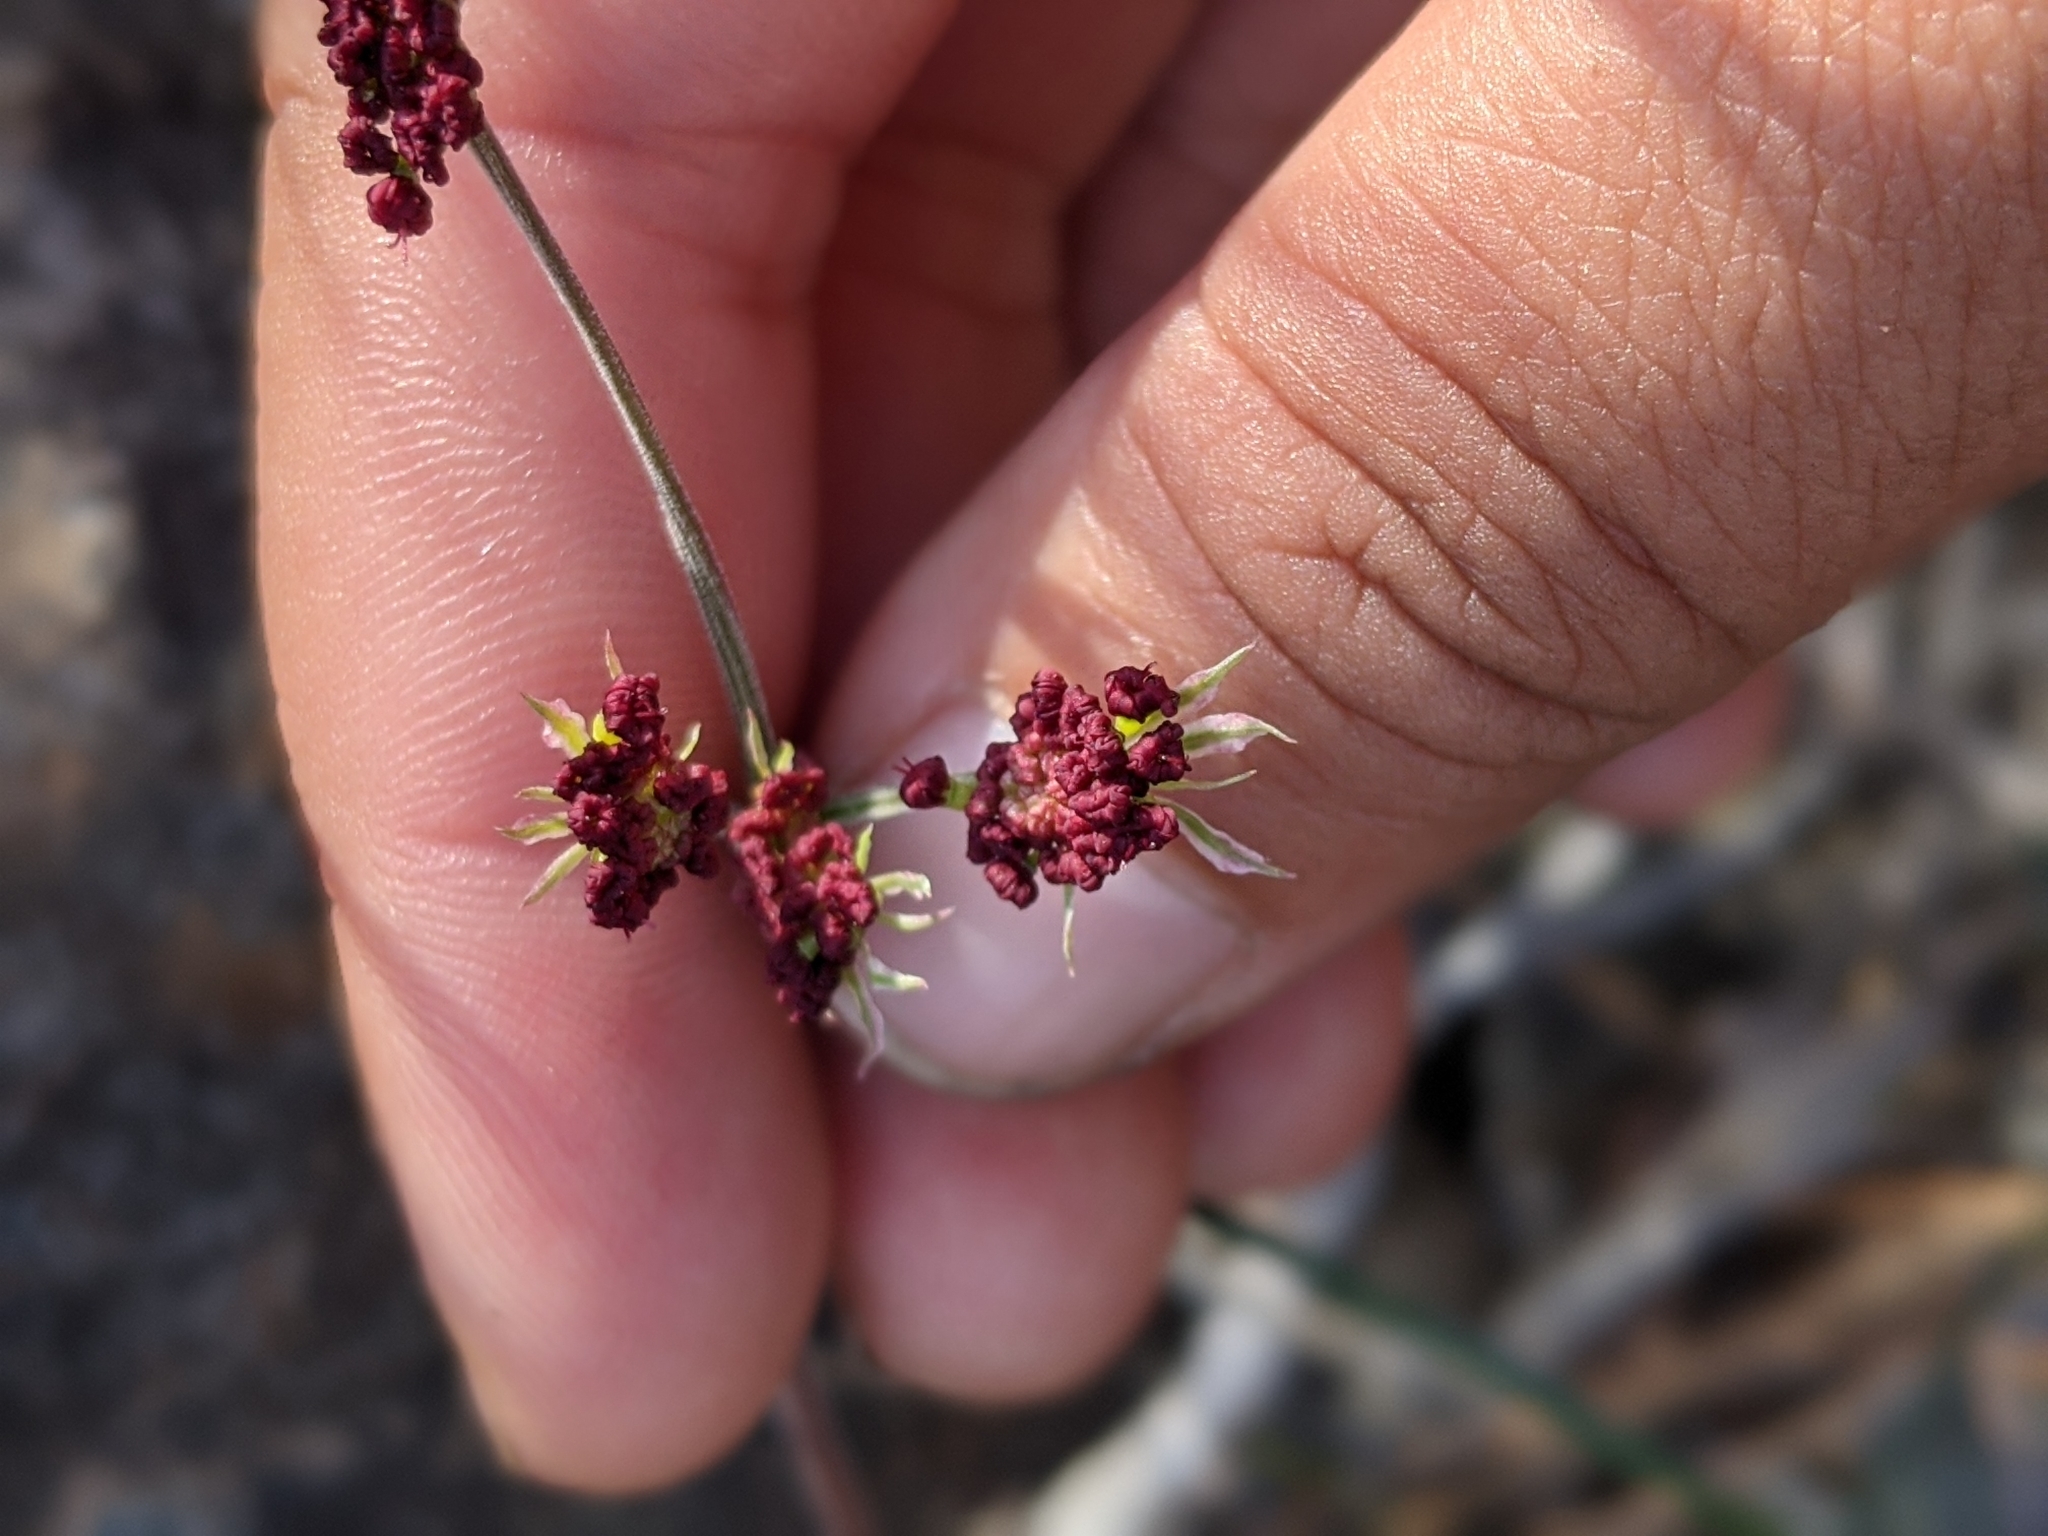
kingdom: Plantae
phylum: Tracheophyta
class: Magnoliopsida
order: Apiales
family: Apiaceae
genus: Lomatium
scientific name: Lomatium hooveri
